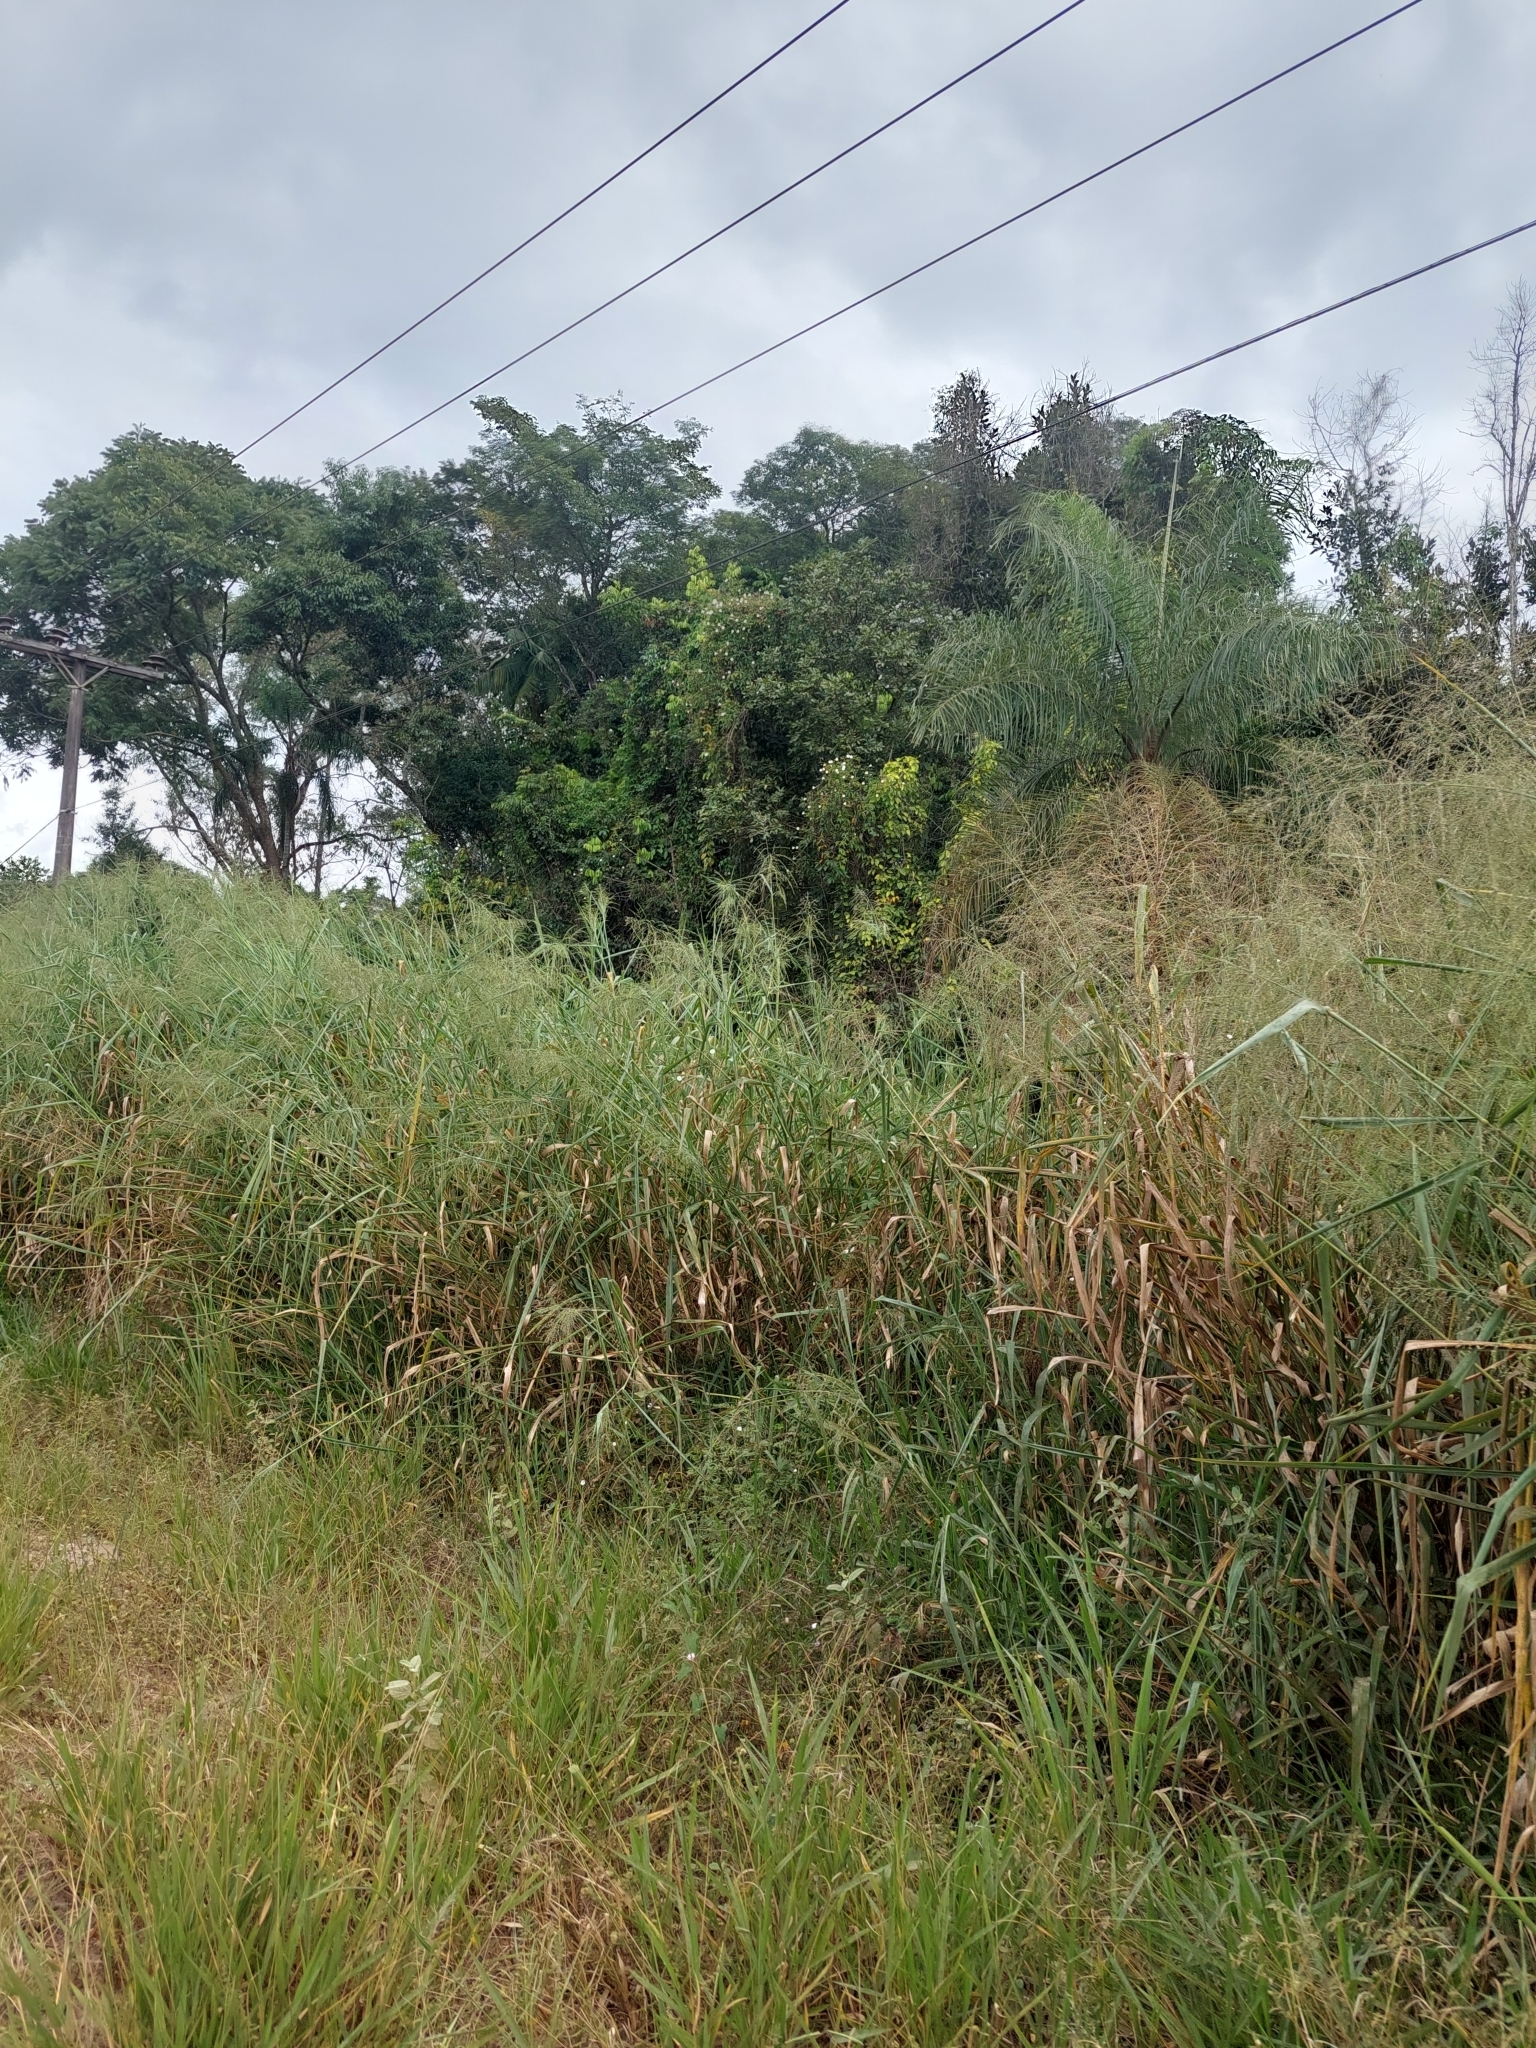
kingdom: Plantae
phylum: Tracheophyta
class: Liliopsida
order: Poales
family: Poaceae
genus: Megathyrsus
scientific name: Megathyrsus maximus
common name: Guineagrass
